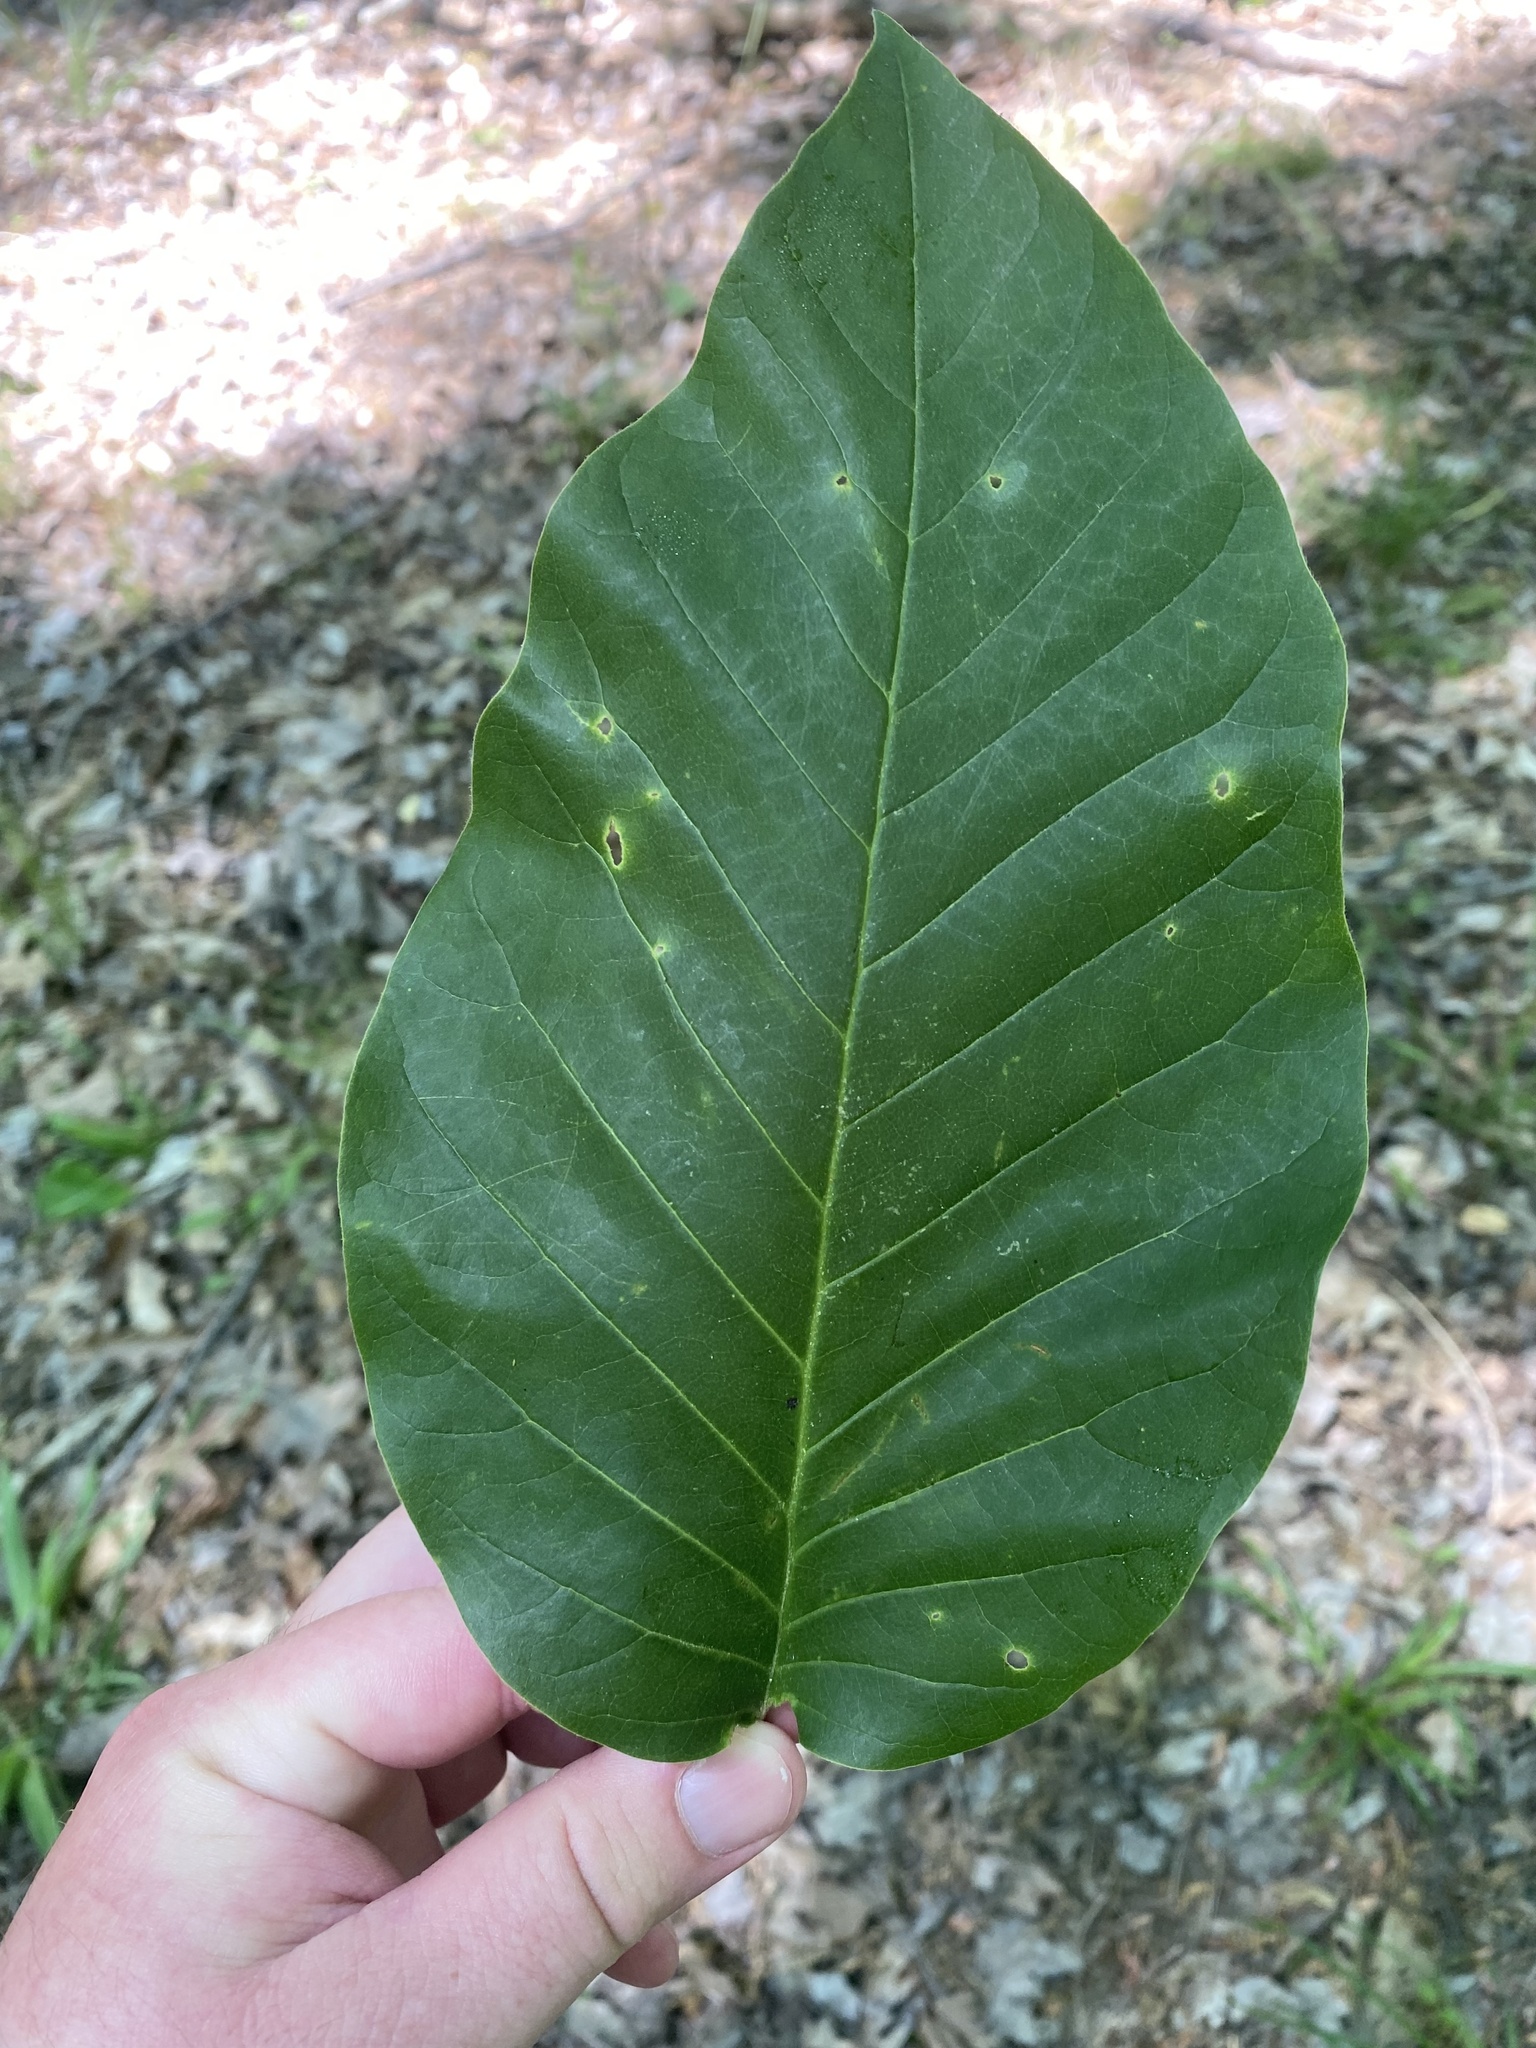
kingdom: Plantae
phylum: Tracheophyta
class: Magnoliopsida
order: Magnoliales
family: Magnoliaceae
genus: Magnolia
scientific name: Magnolia acuminata
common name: Cucumber magnolia
